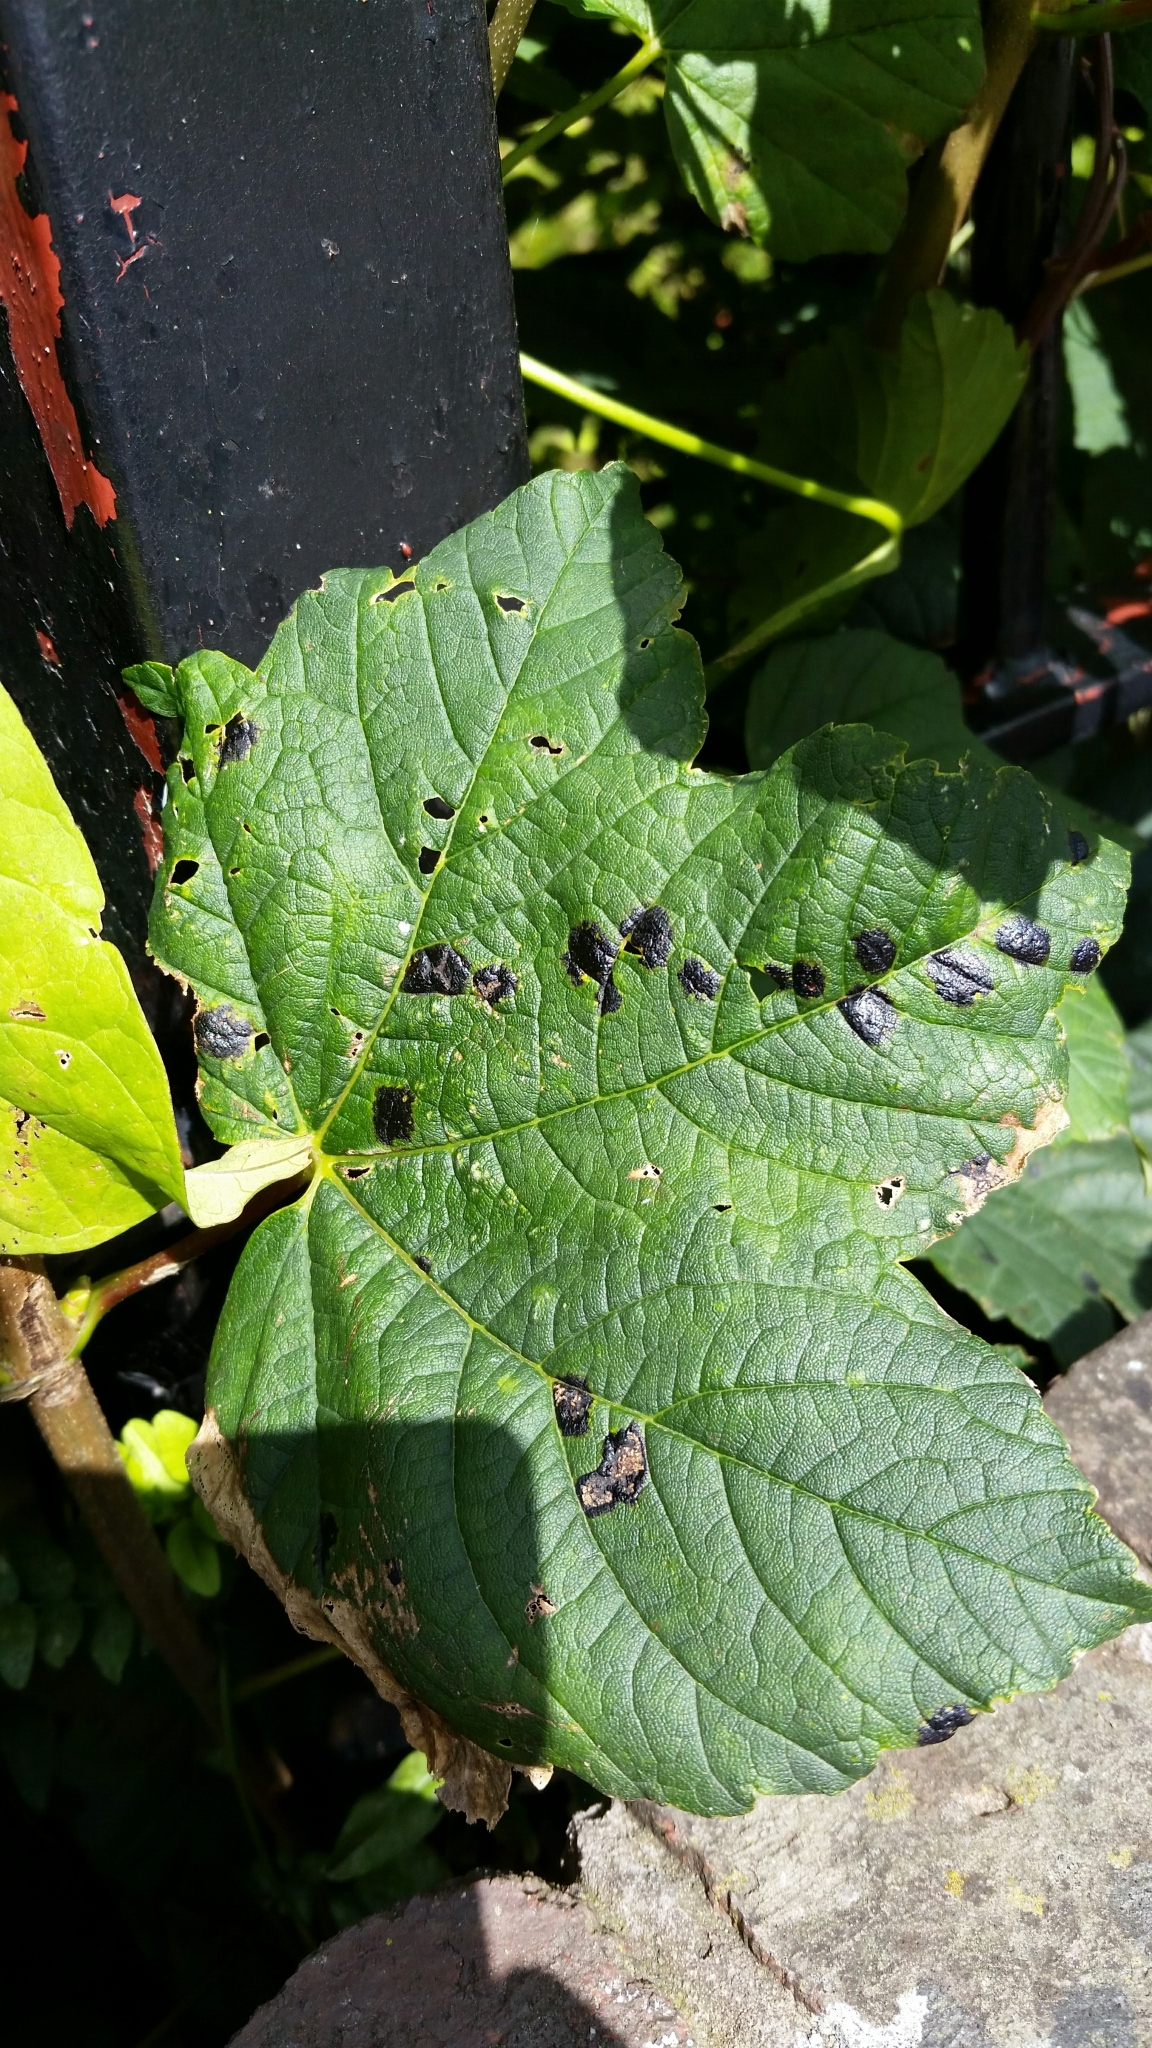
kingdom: Fungi
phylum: Ascomycota
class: Leotiomycetes
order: Rhytismatales
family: Rhytismataceae
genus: Rhytisma
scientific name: Rhytisma acerinum
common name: European tar spot
